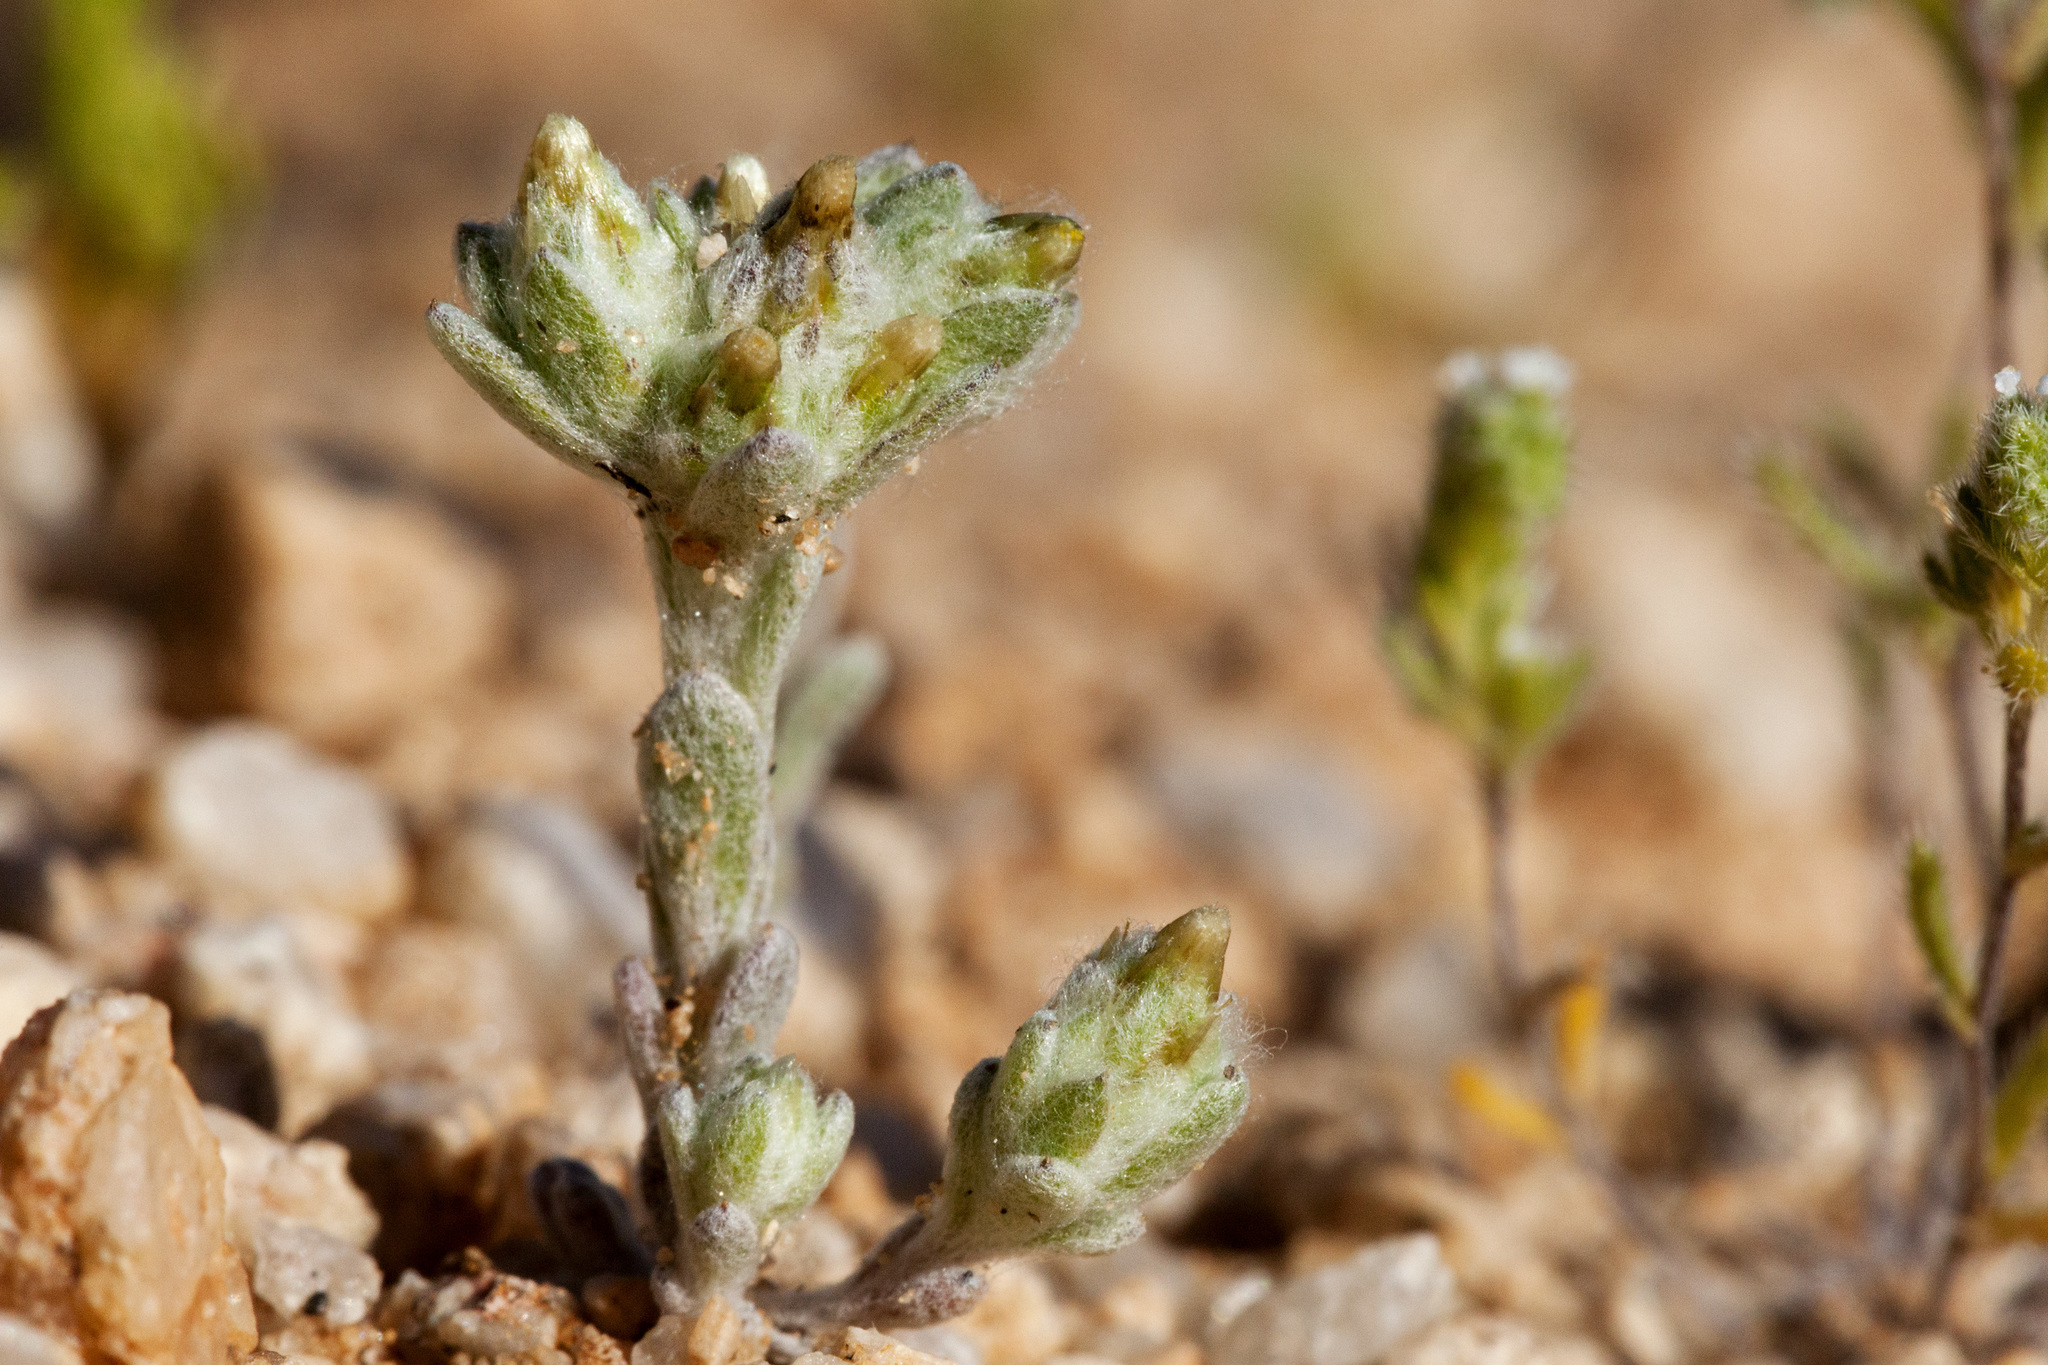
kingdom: Plantae
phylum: Tracheophyta
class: Magnoliopsida
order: Asterales
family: Asteraceae
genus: Logfia
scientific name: Logfia depressa
